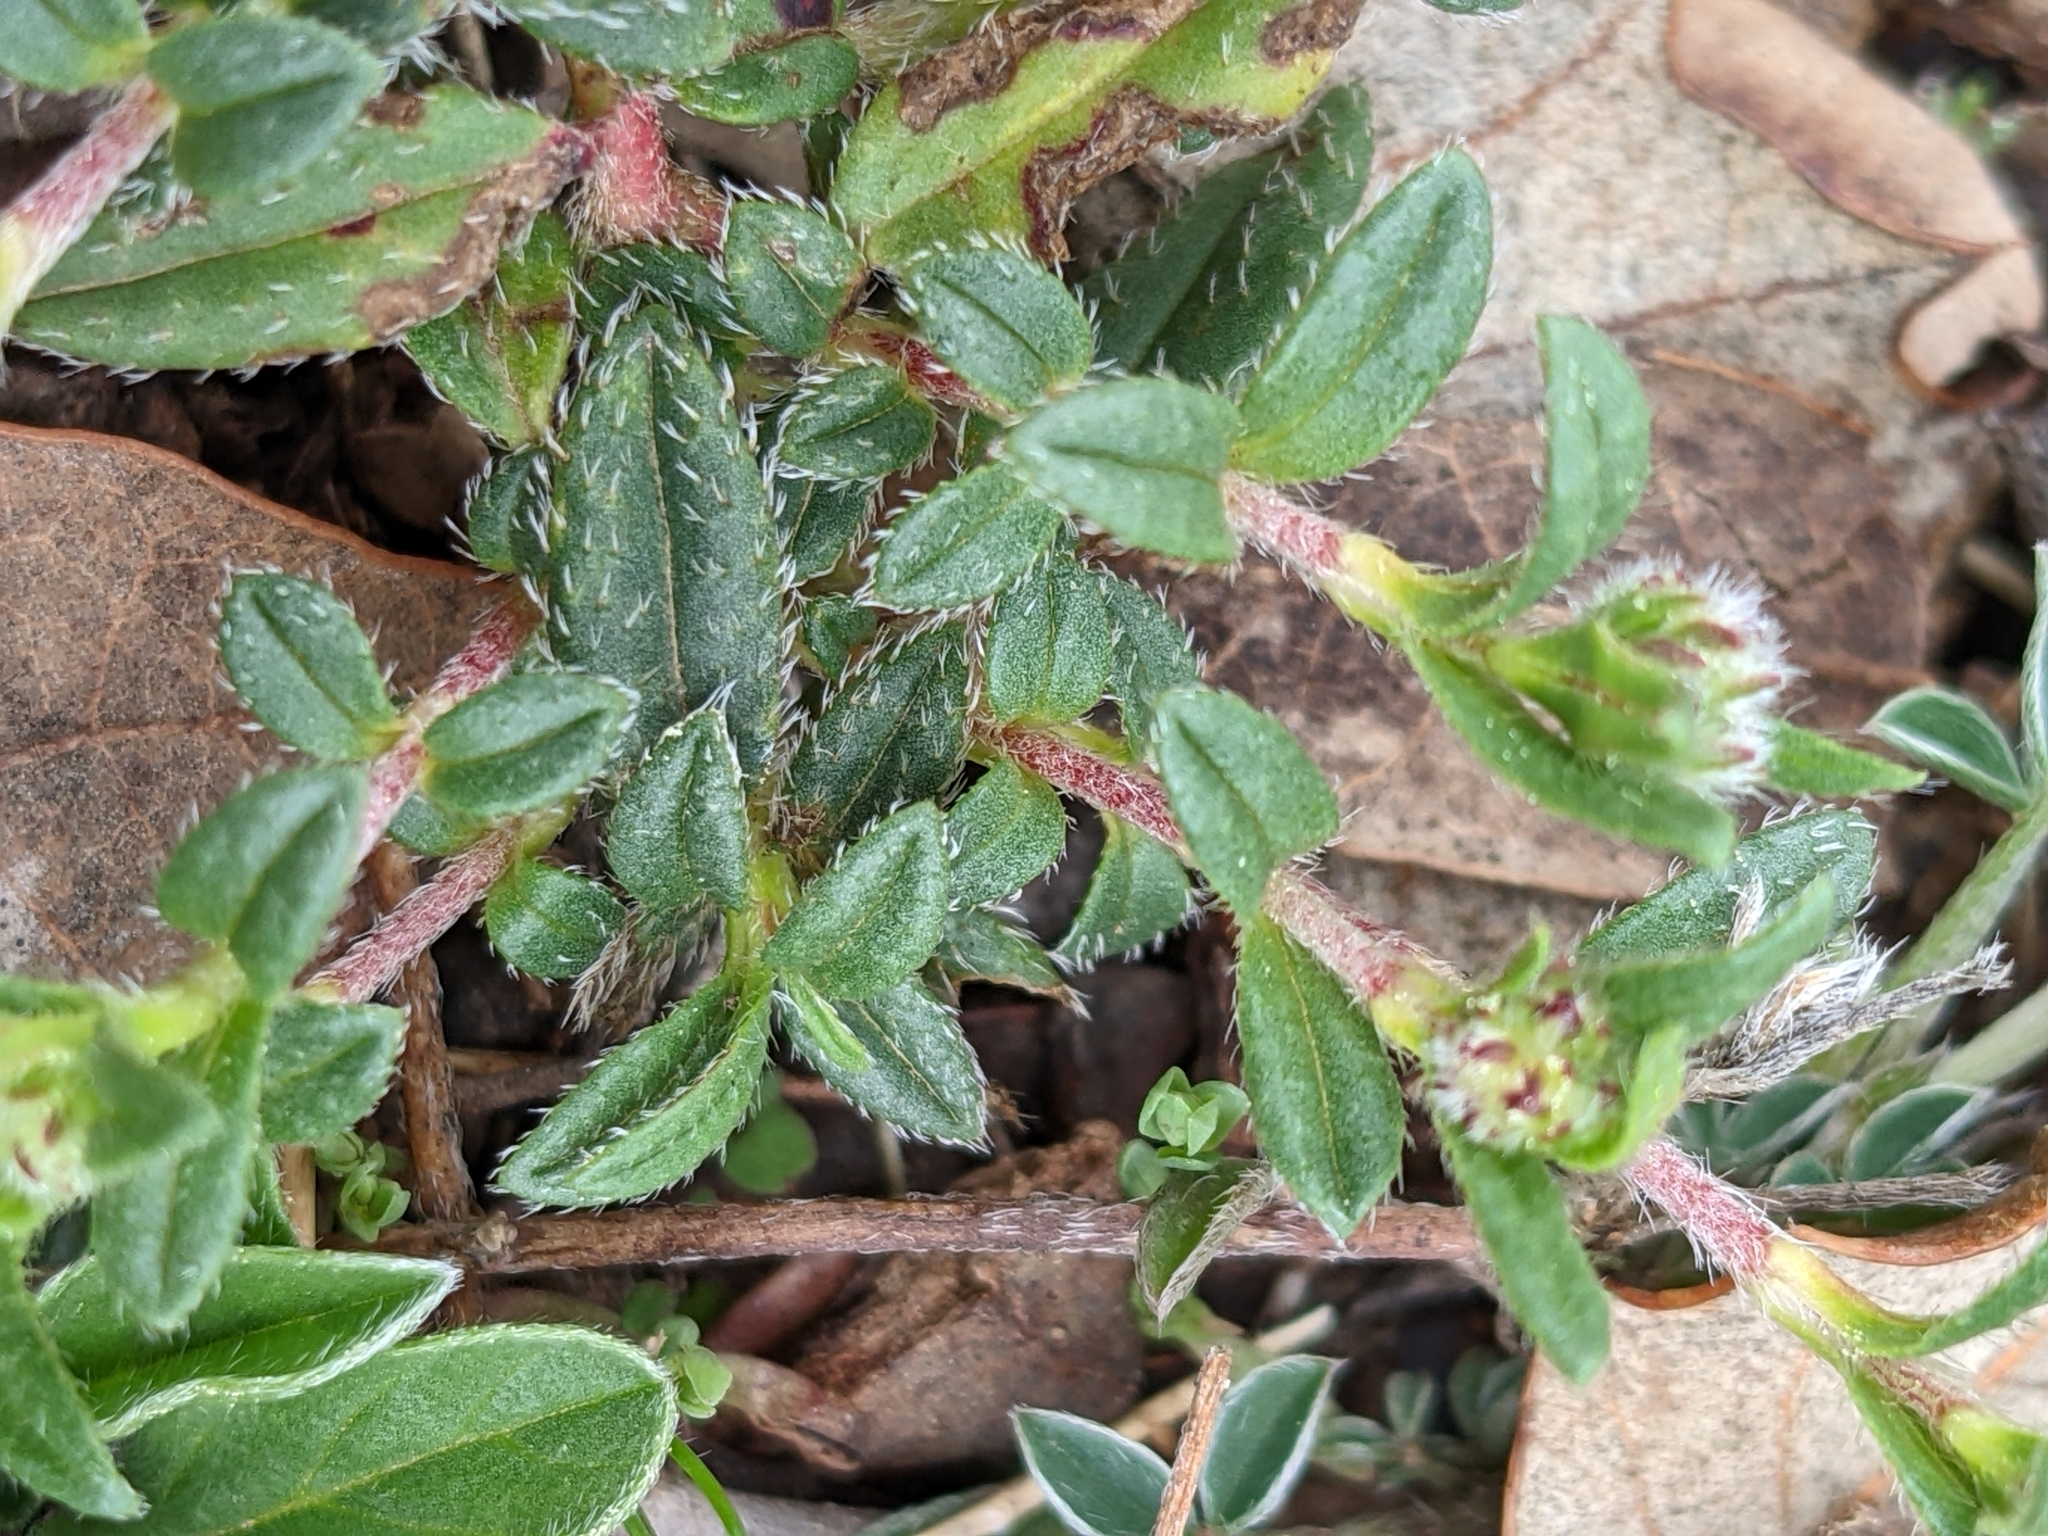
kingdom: Plantae
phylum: Tracheophyta
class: Magnoliopsida
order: Malvales
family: Cistaceae
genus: Helianthemum
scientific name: Helianthemum oelandicum
